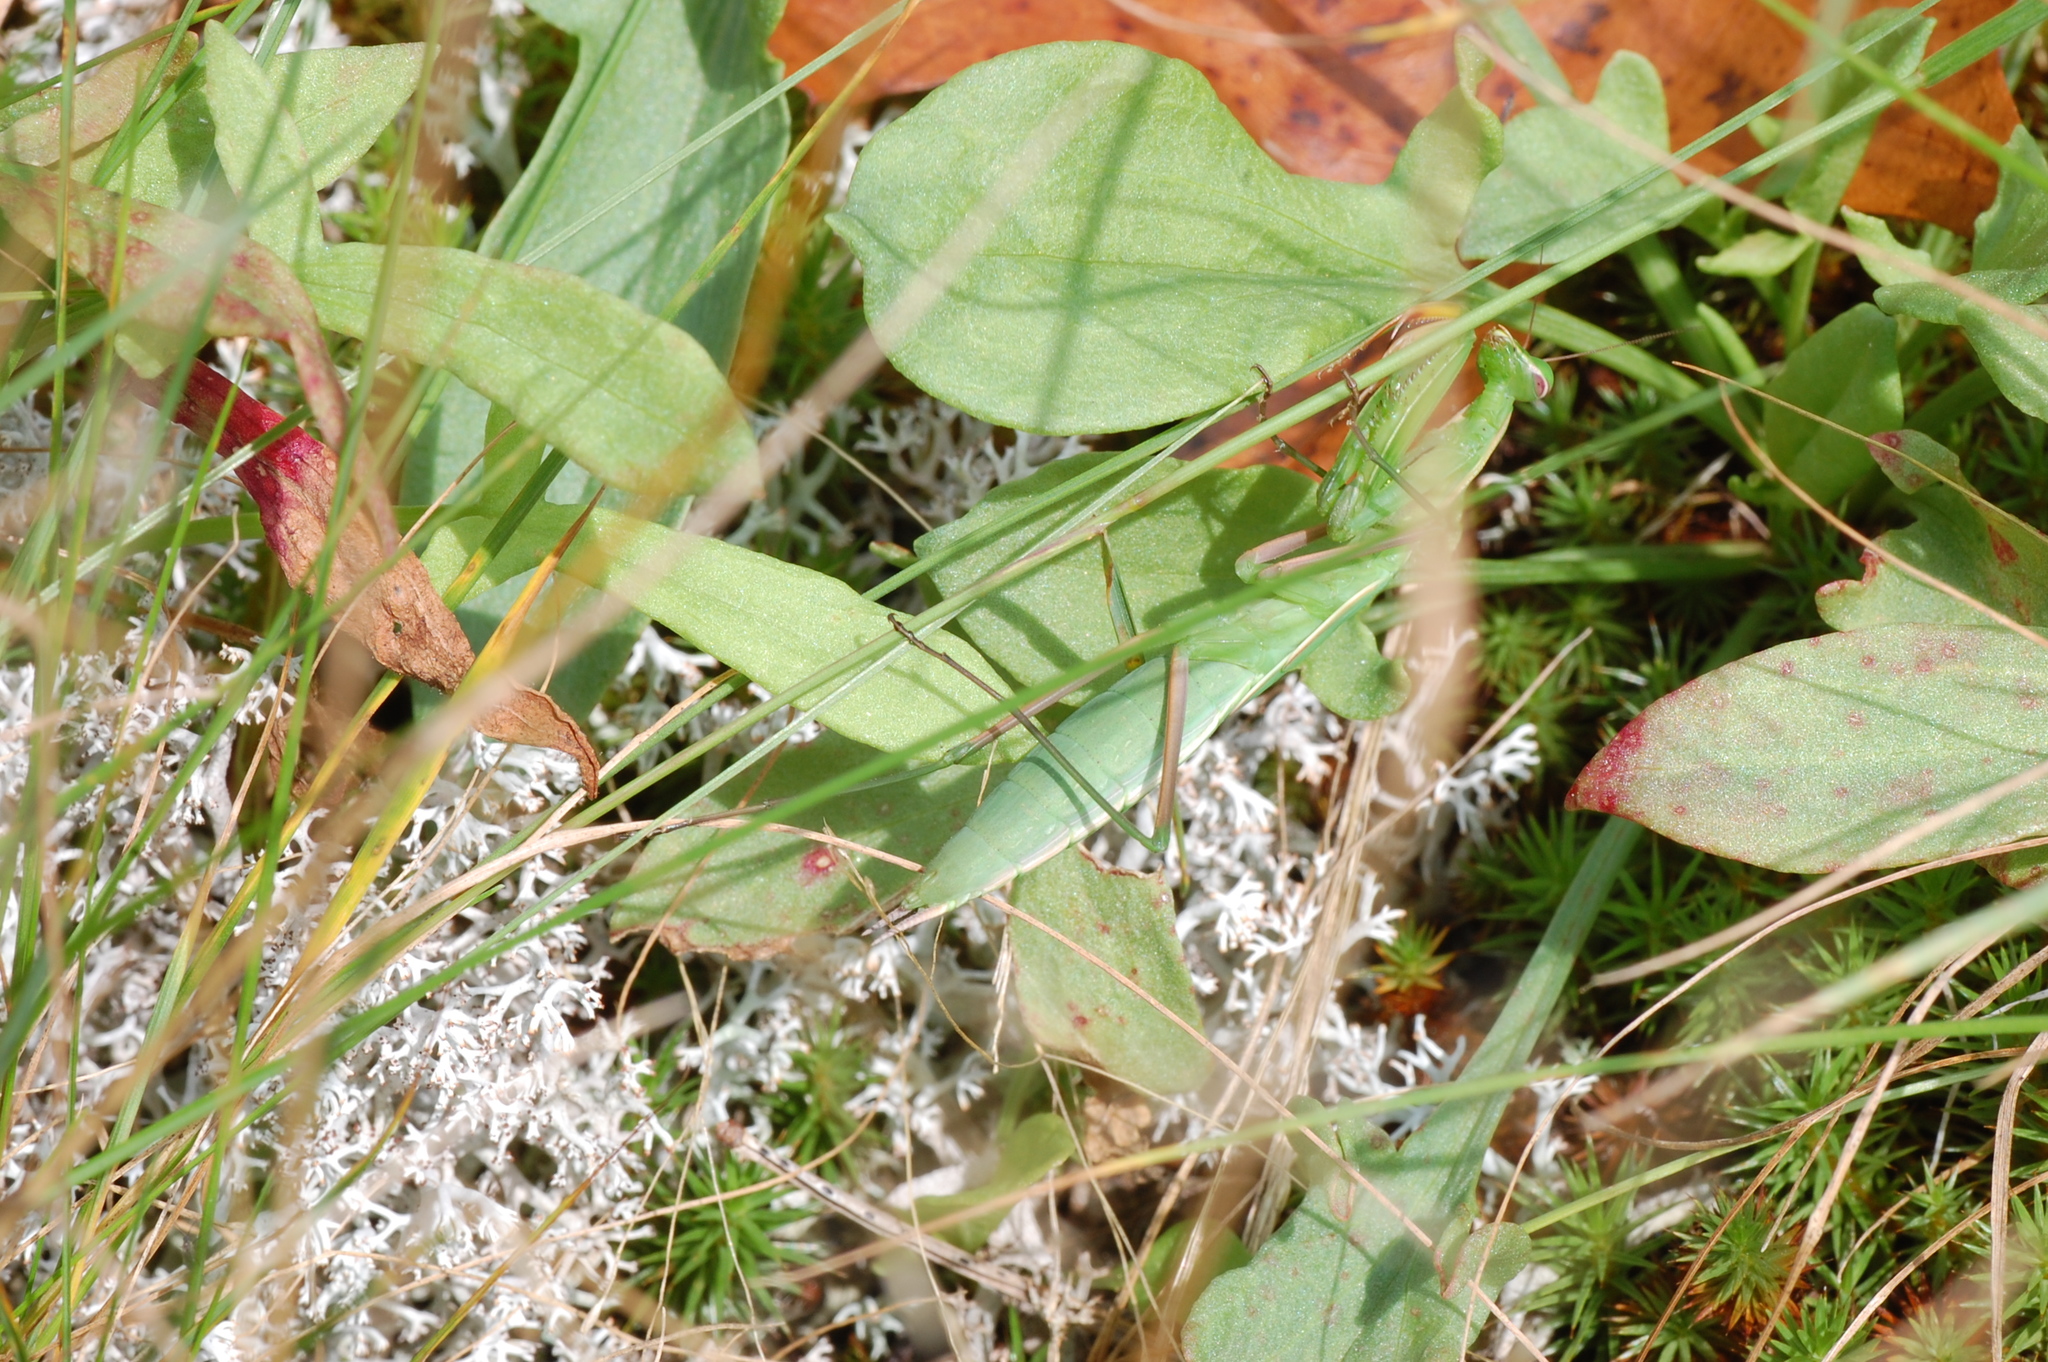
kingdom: Animalia
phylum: Arthropoda
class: Insecta
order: Mantodea
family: Mantidae
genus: Mantis
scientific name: Mantis religiosa
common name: Praying mantis
